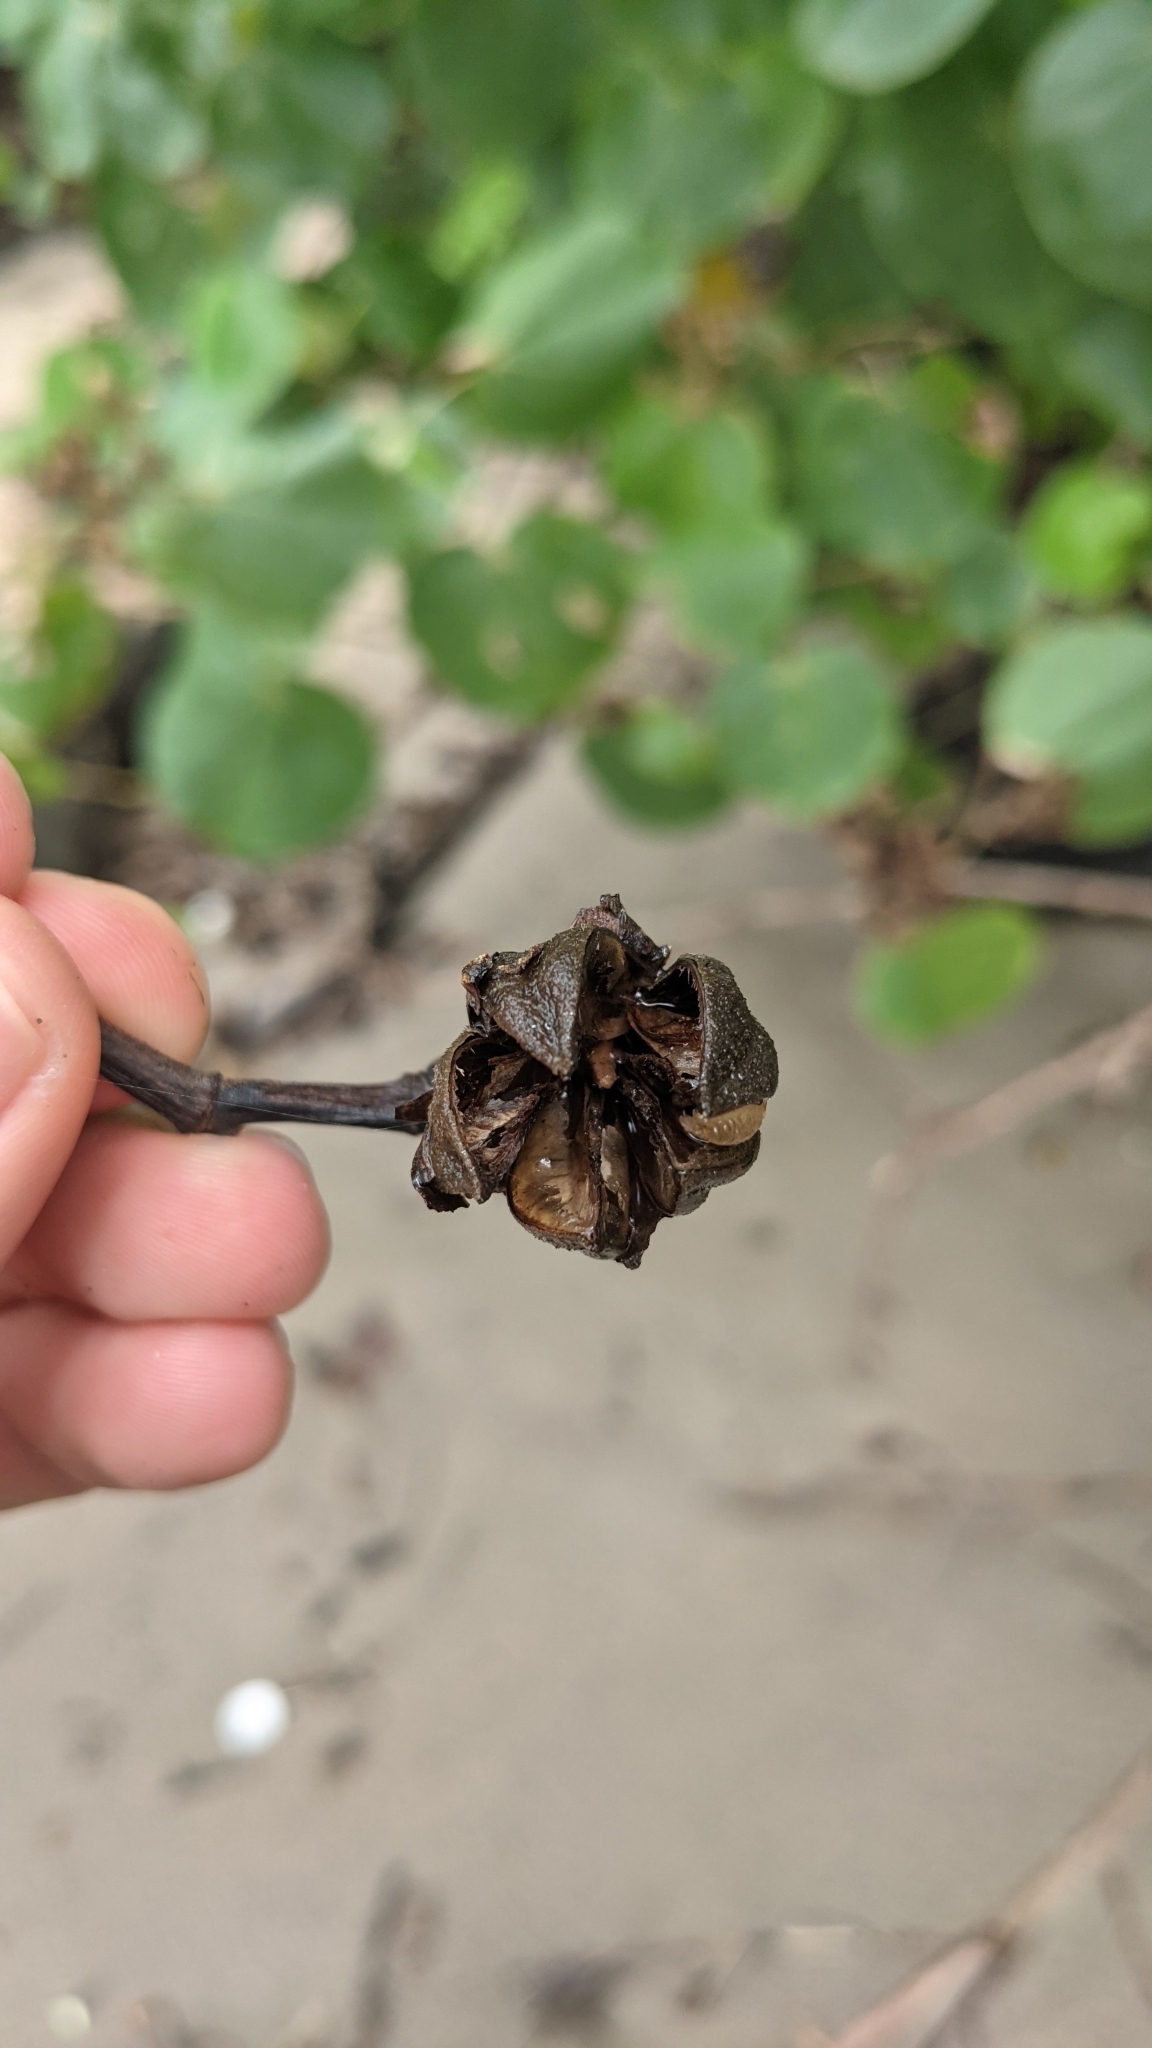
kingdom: Plantae
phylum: Tracheophyta
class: Magnoliopsida
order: Malvales
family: Malvaceae
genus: Talipariti
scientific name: Talipariti pernambucense
